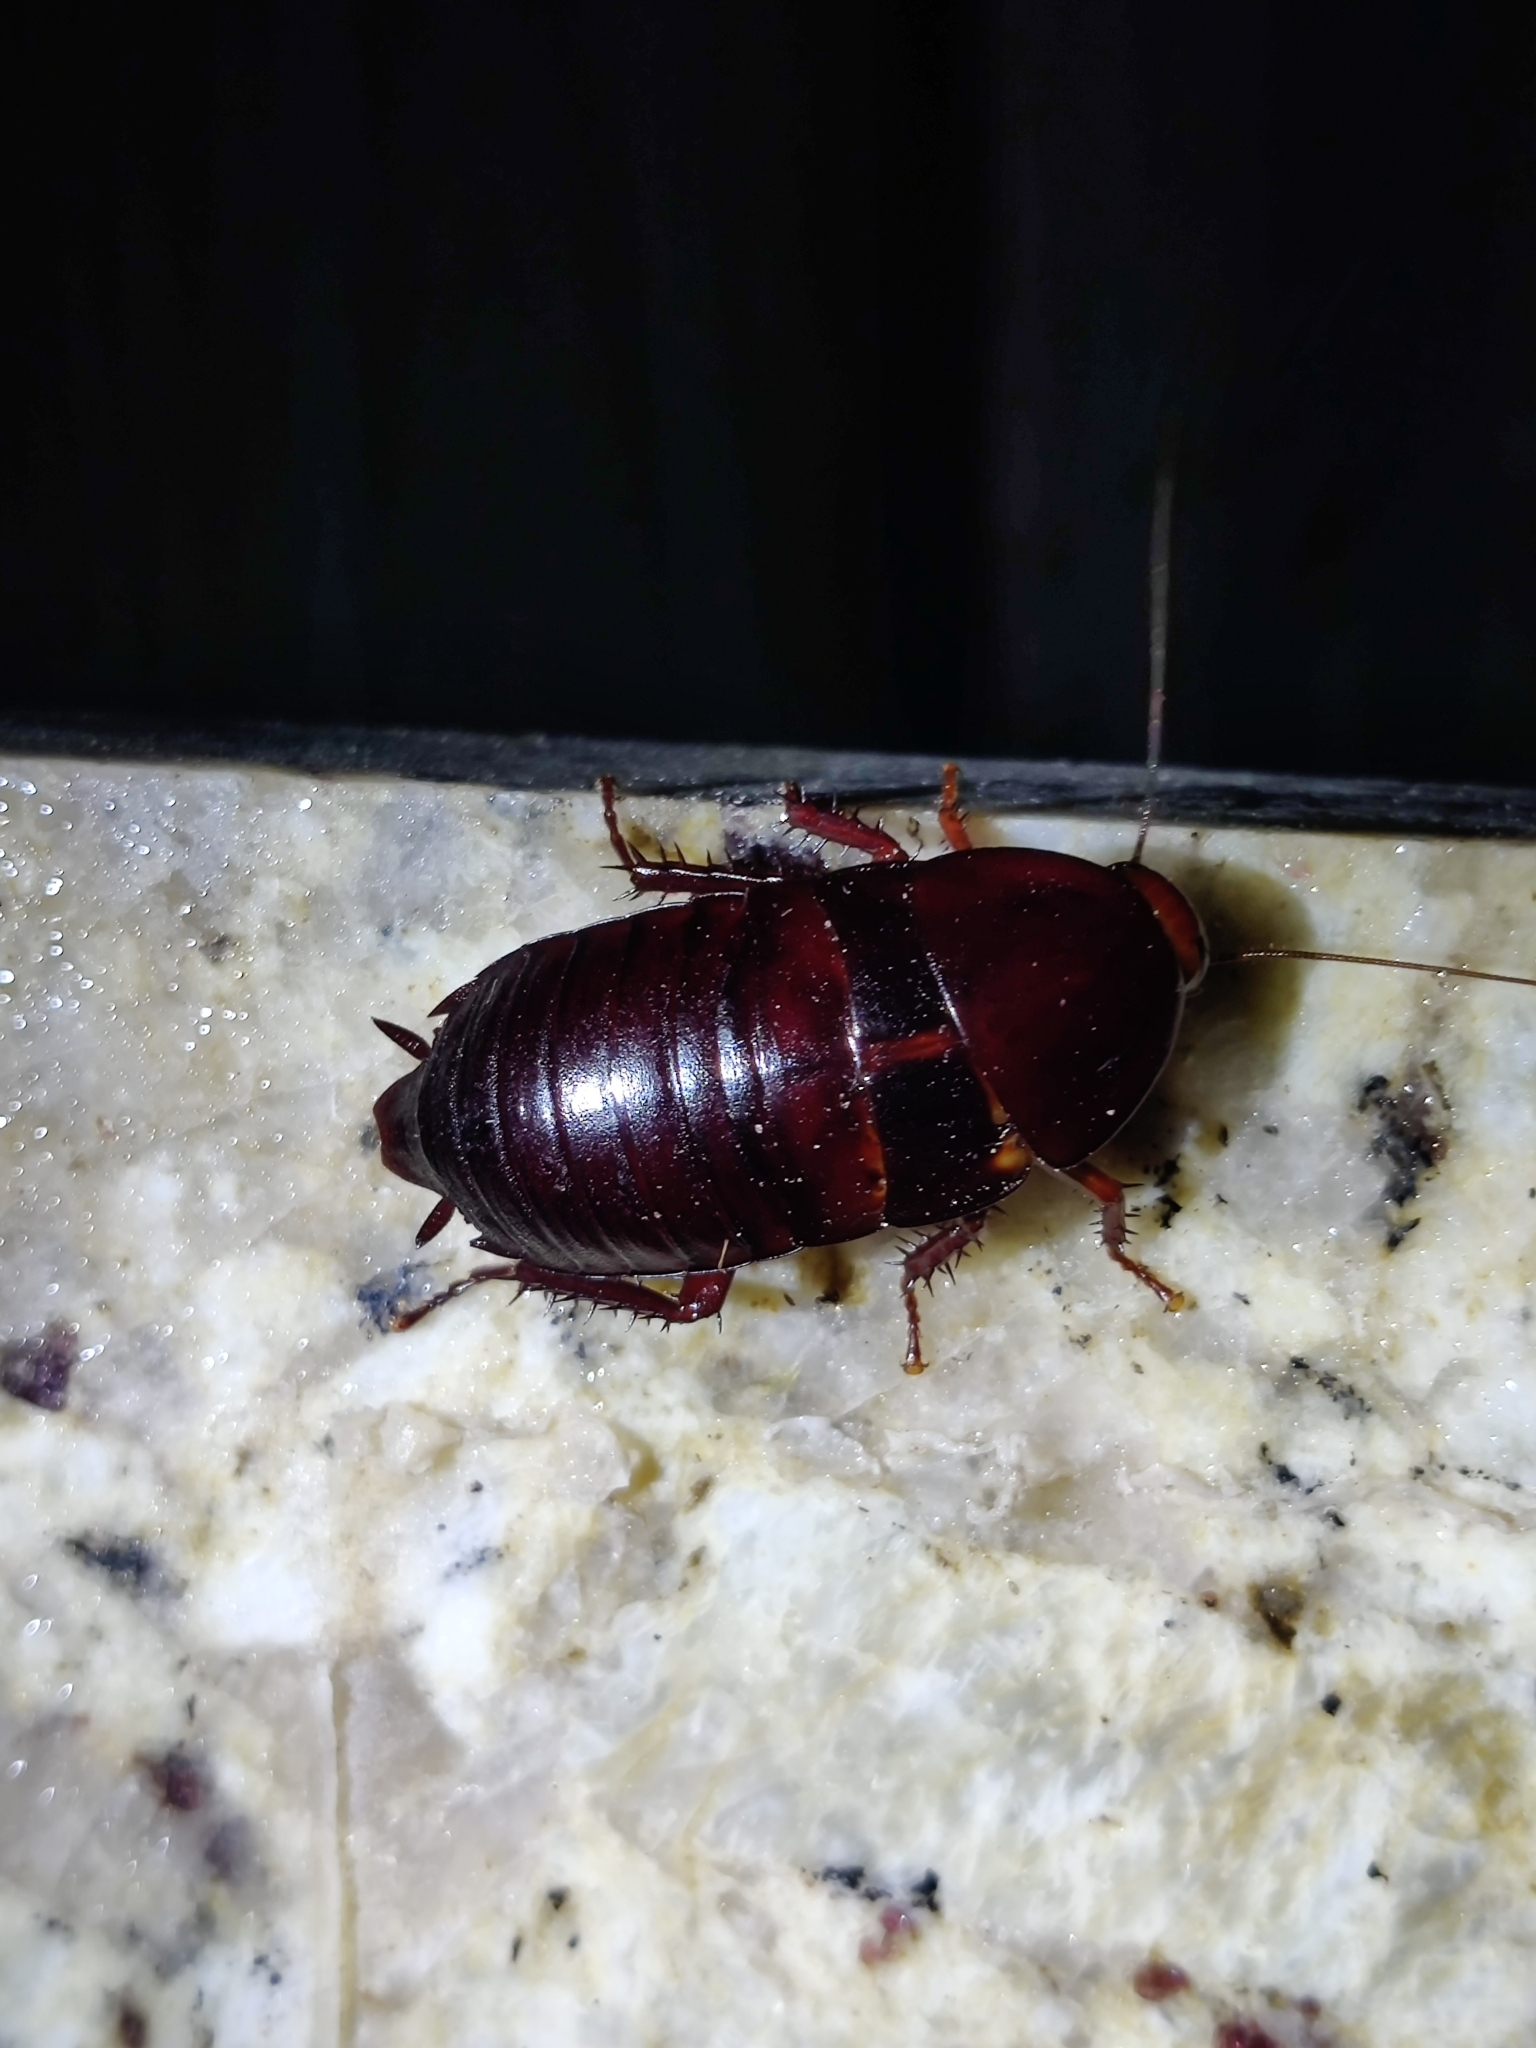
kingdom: Animalia
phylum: Arthropoda
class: Insecta
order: Blattodea
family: Blattidae
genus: Eurycotis
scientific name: Eurycotis floridana
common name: Florida cockroach
